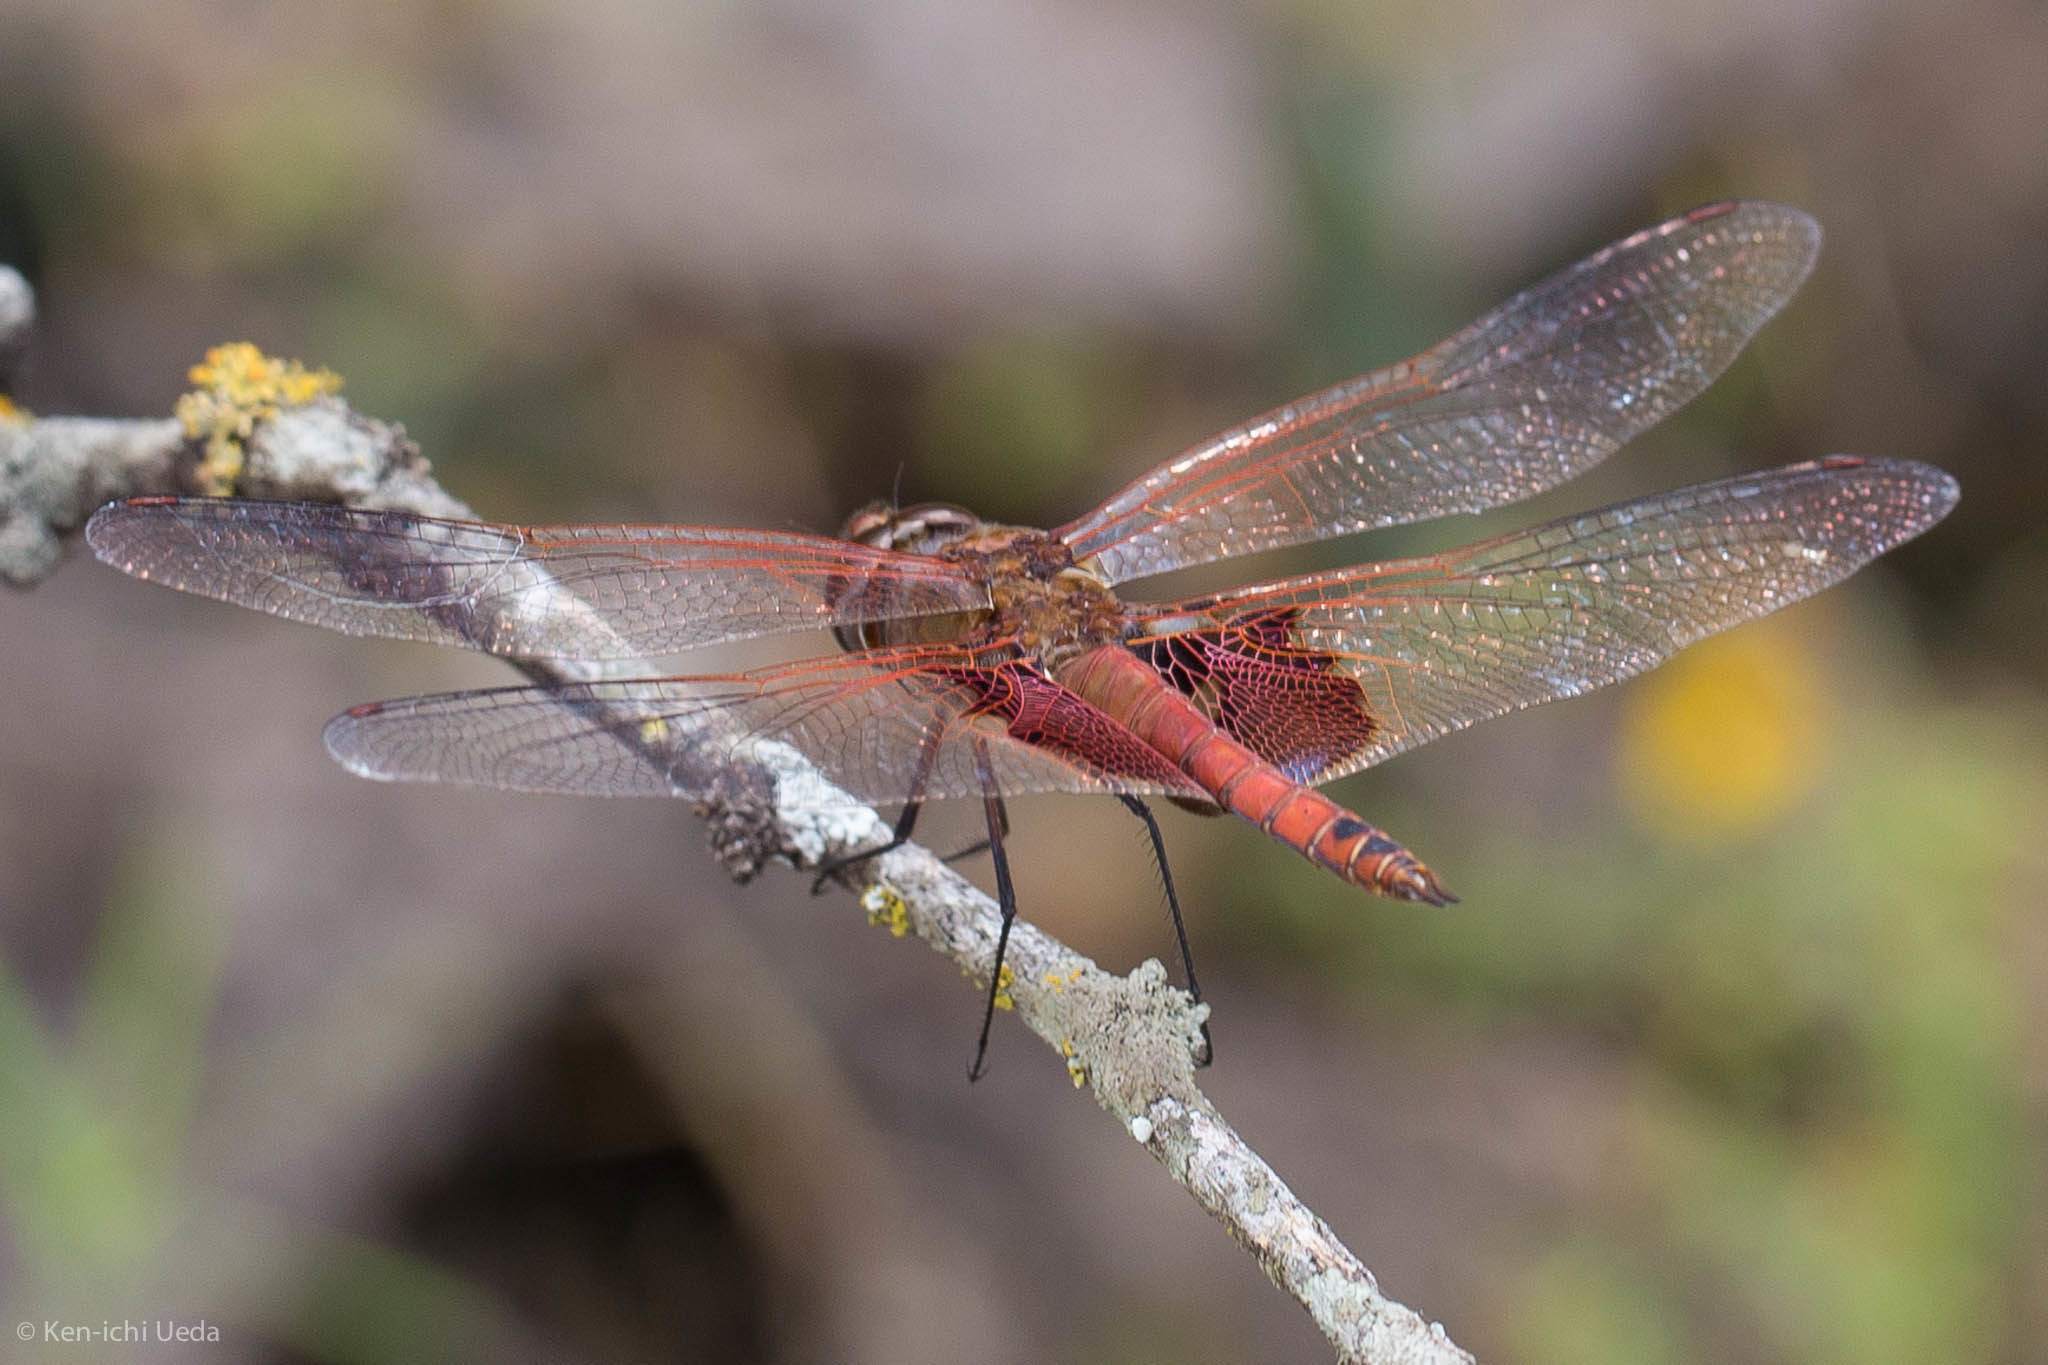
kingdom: Animalia
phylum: Arthropoda
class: Insecta
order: Odonata
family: Libellulidae
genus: Tramea
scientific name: Tramea onusta
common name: Red saddlebags
